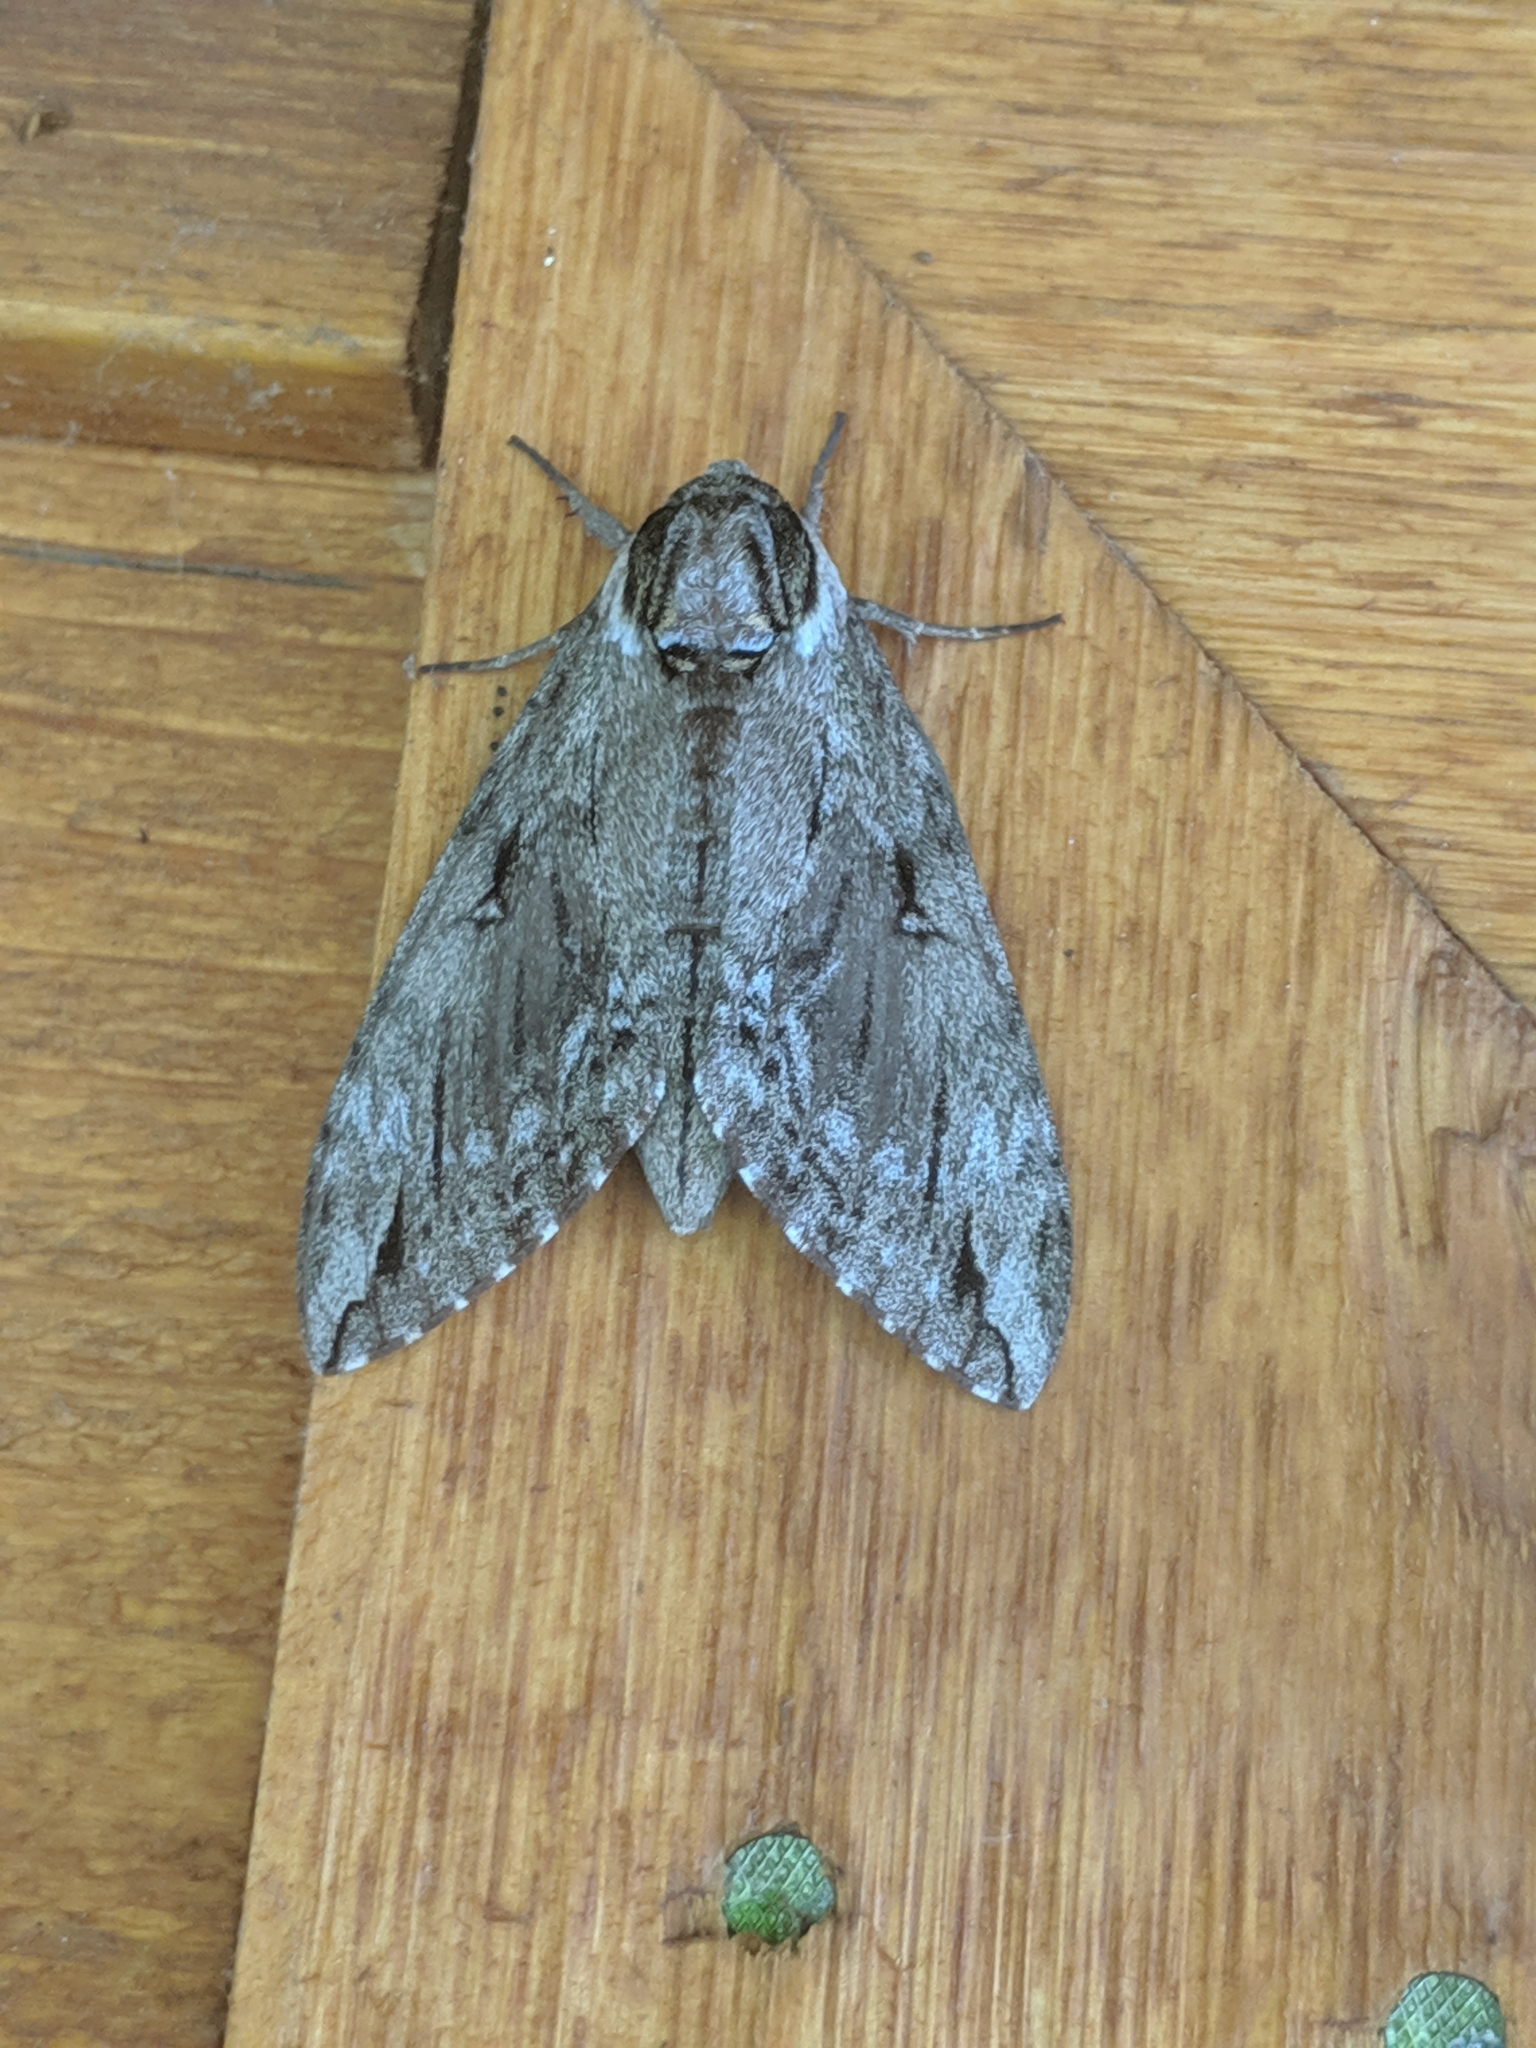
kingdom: Animalia
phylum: Arthropoda
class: Insecta
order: Lepidoptera
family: Sphingidae
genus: Ceratomia
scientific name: Ceratomia catalpae
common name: Catalpa hornworm
